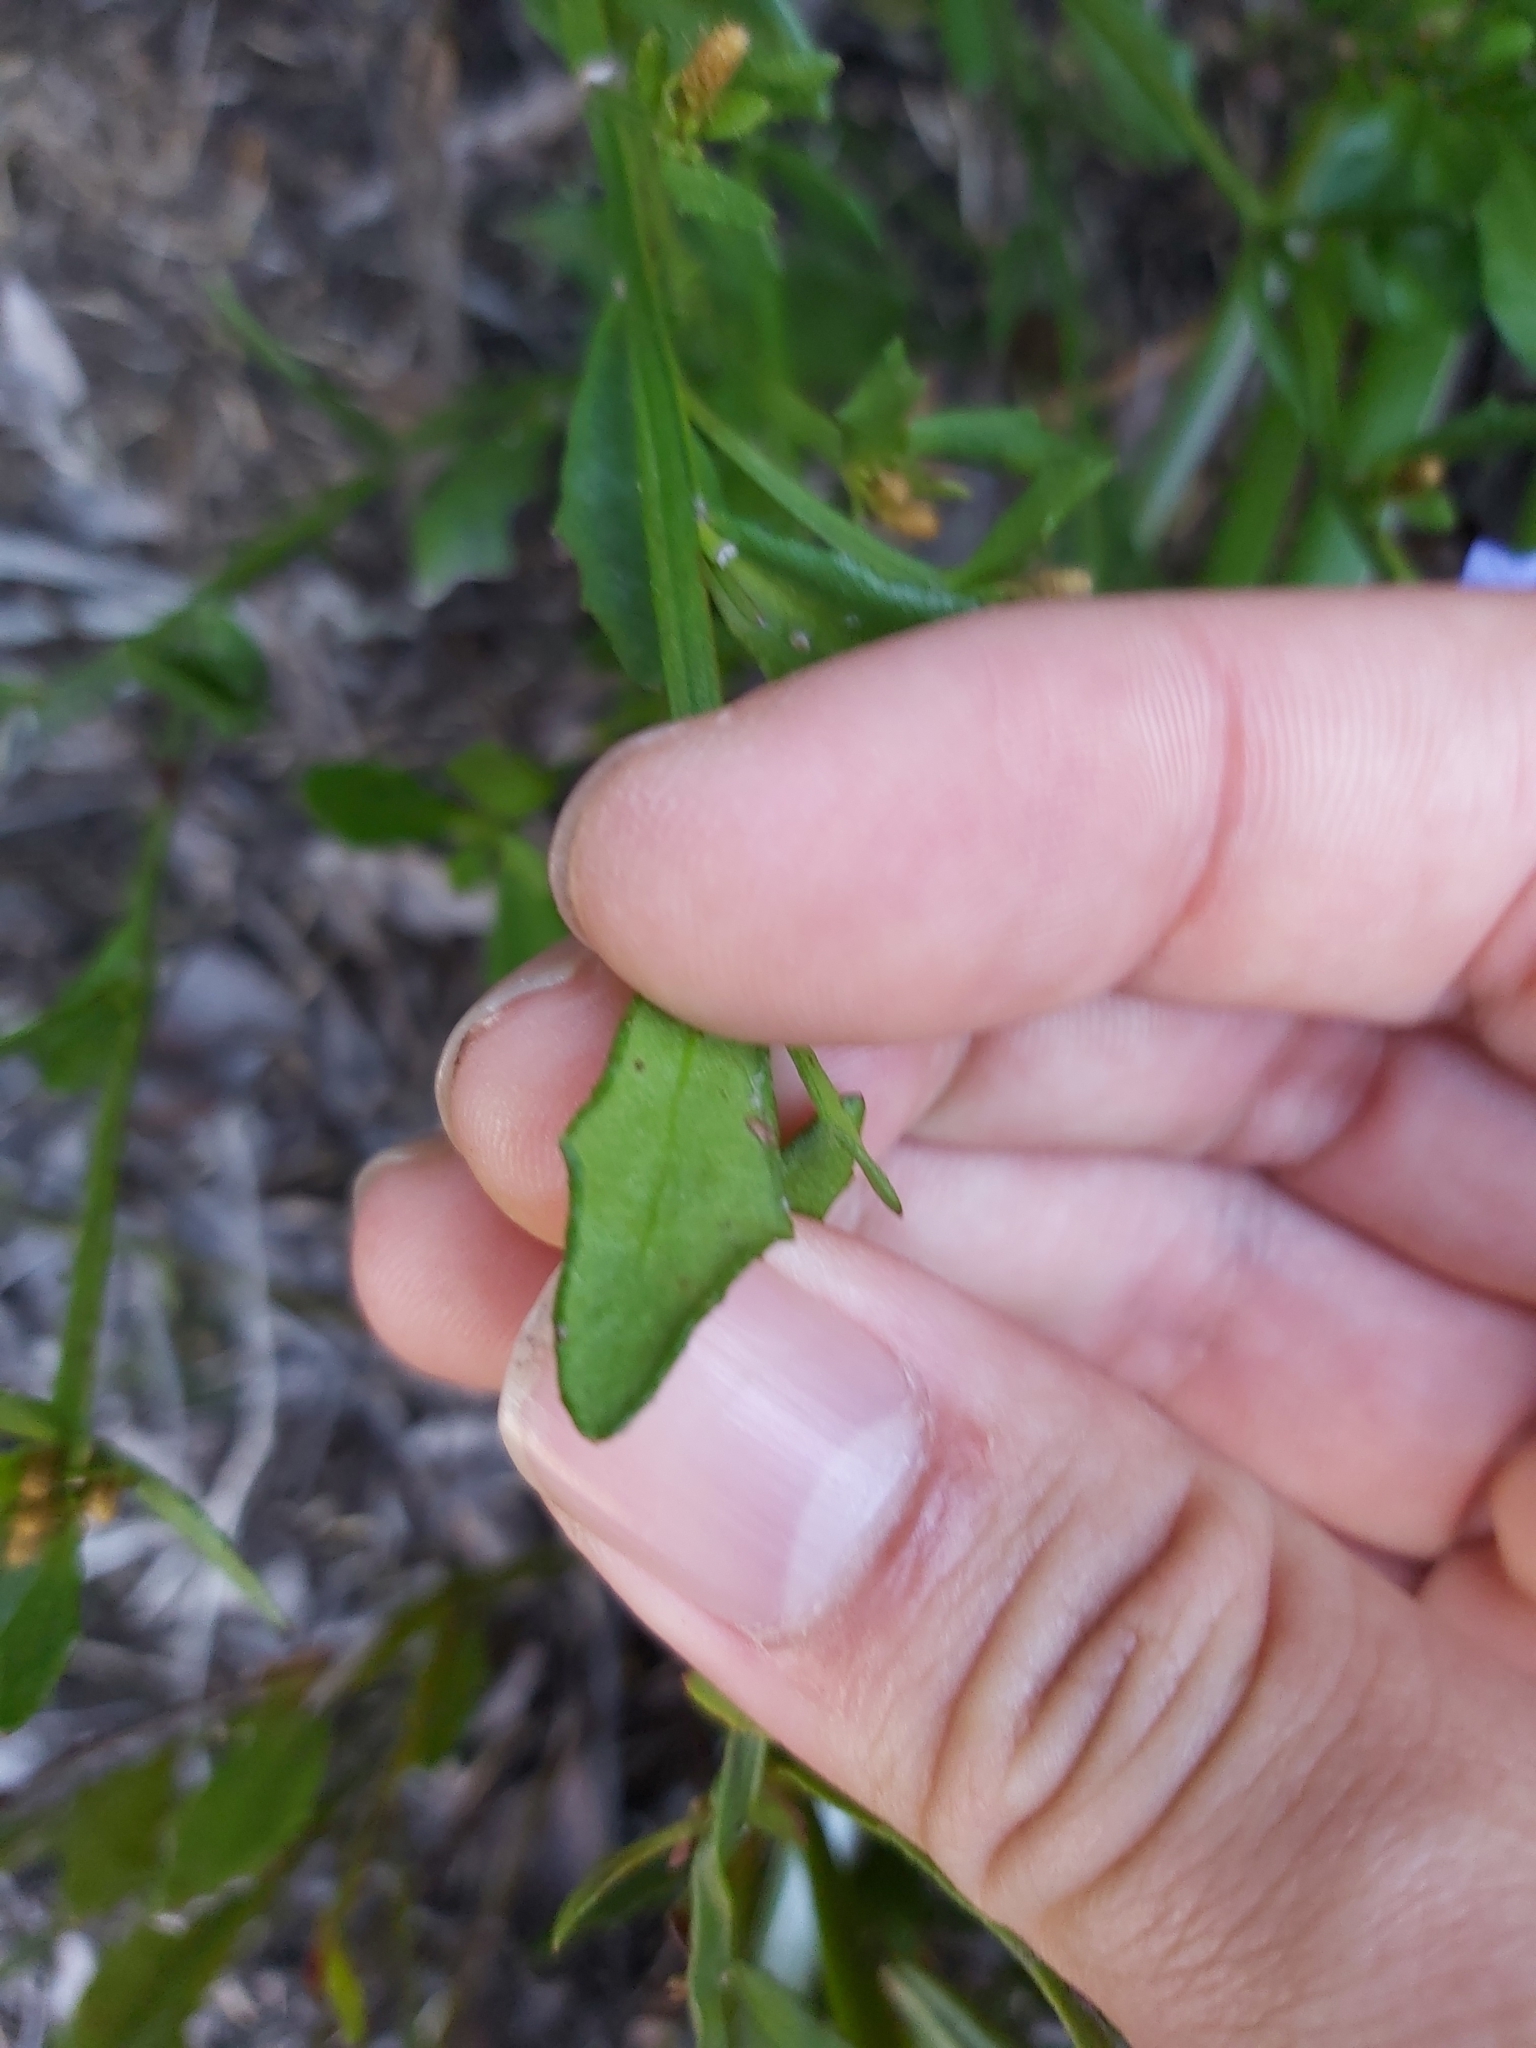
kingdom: Plantae
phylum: Tracheophyta
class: Magnoliopsida
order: Asterales
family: Goodeniaceae
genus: Dampiera
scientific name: Dampiera stricta
